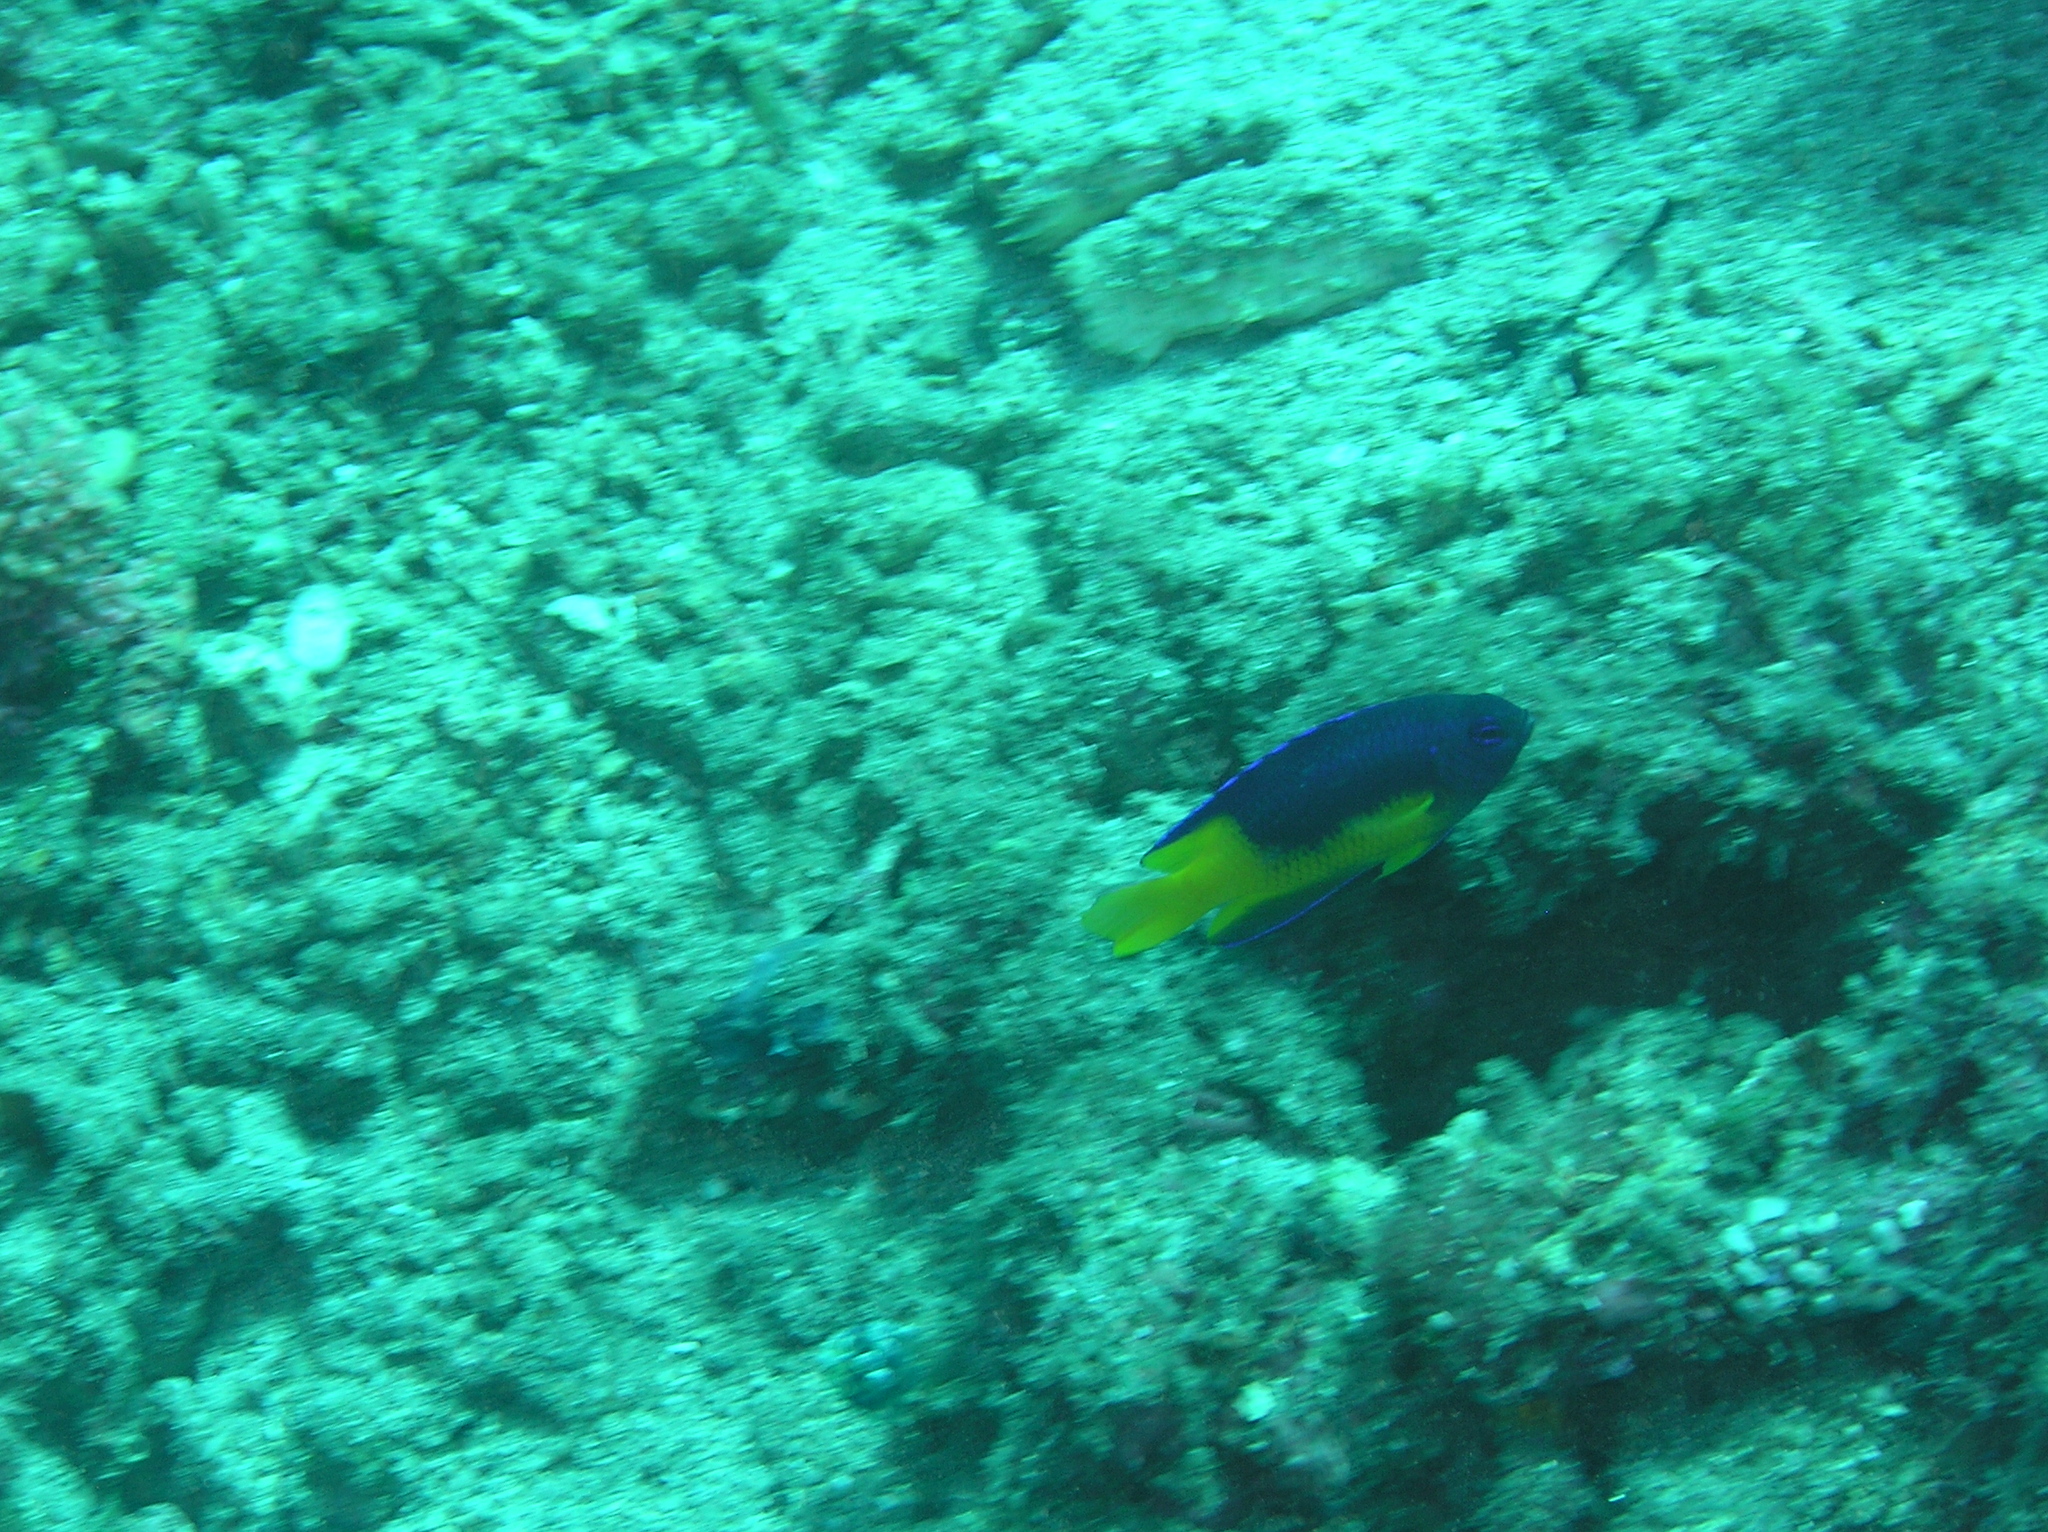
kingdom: Animalia
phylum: Chordata
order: Perciformes
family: Pomacentridae
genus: Pomacentrus
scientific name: Pomacentrus auriventris
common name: Goldbelly damsel
